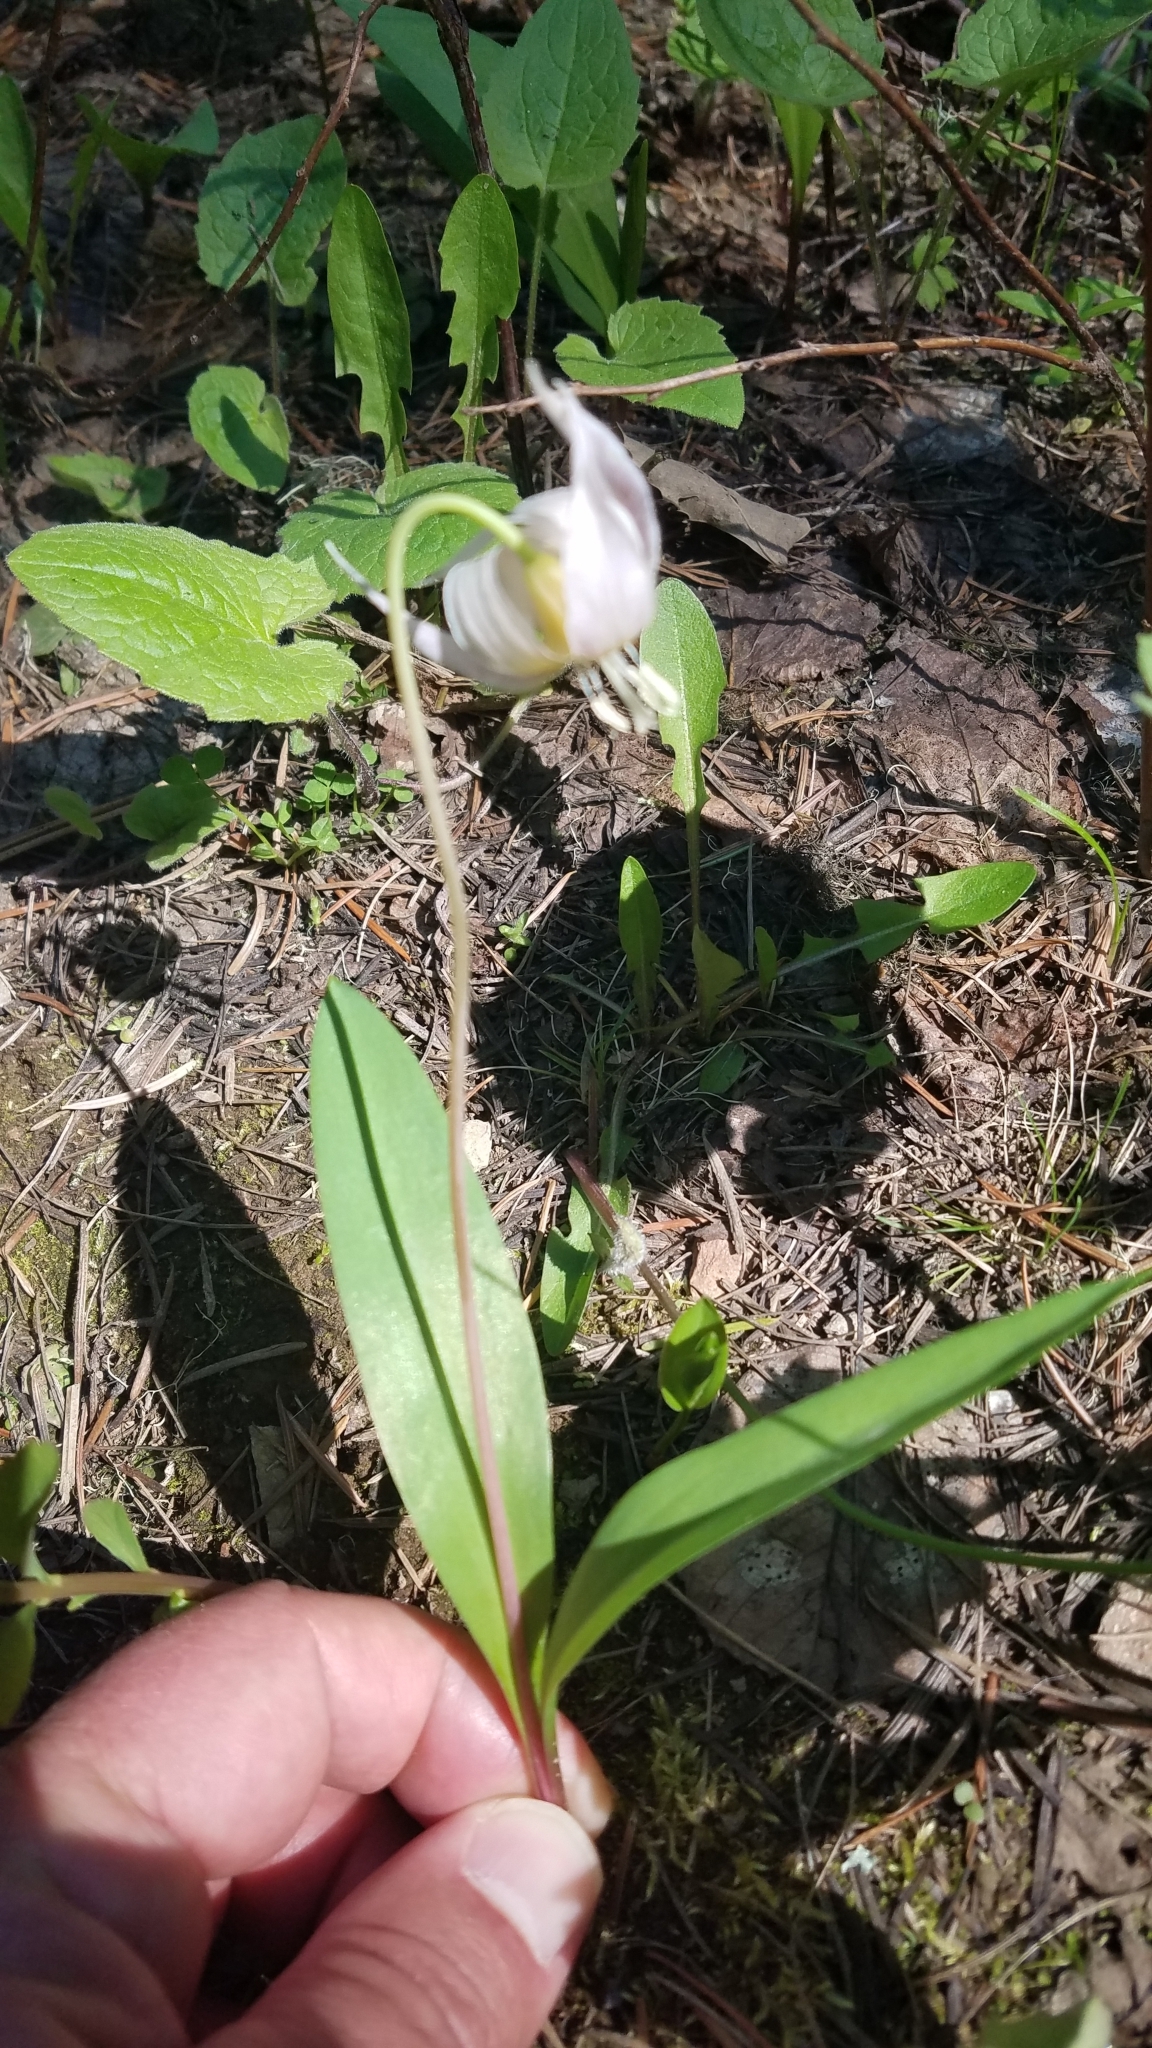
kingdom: Plantae
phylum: Tracheophyta
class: Liliopsida
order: Liliales
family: Liliaceae
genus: Erythronium
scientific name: Erythronium idahoense
